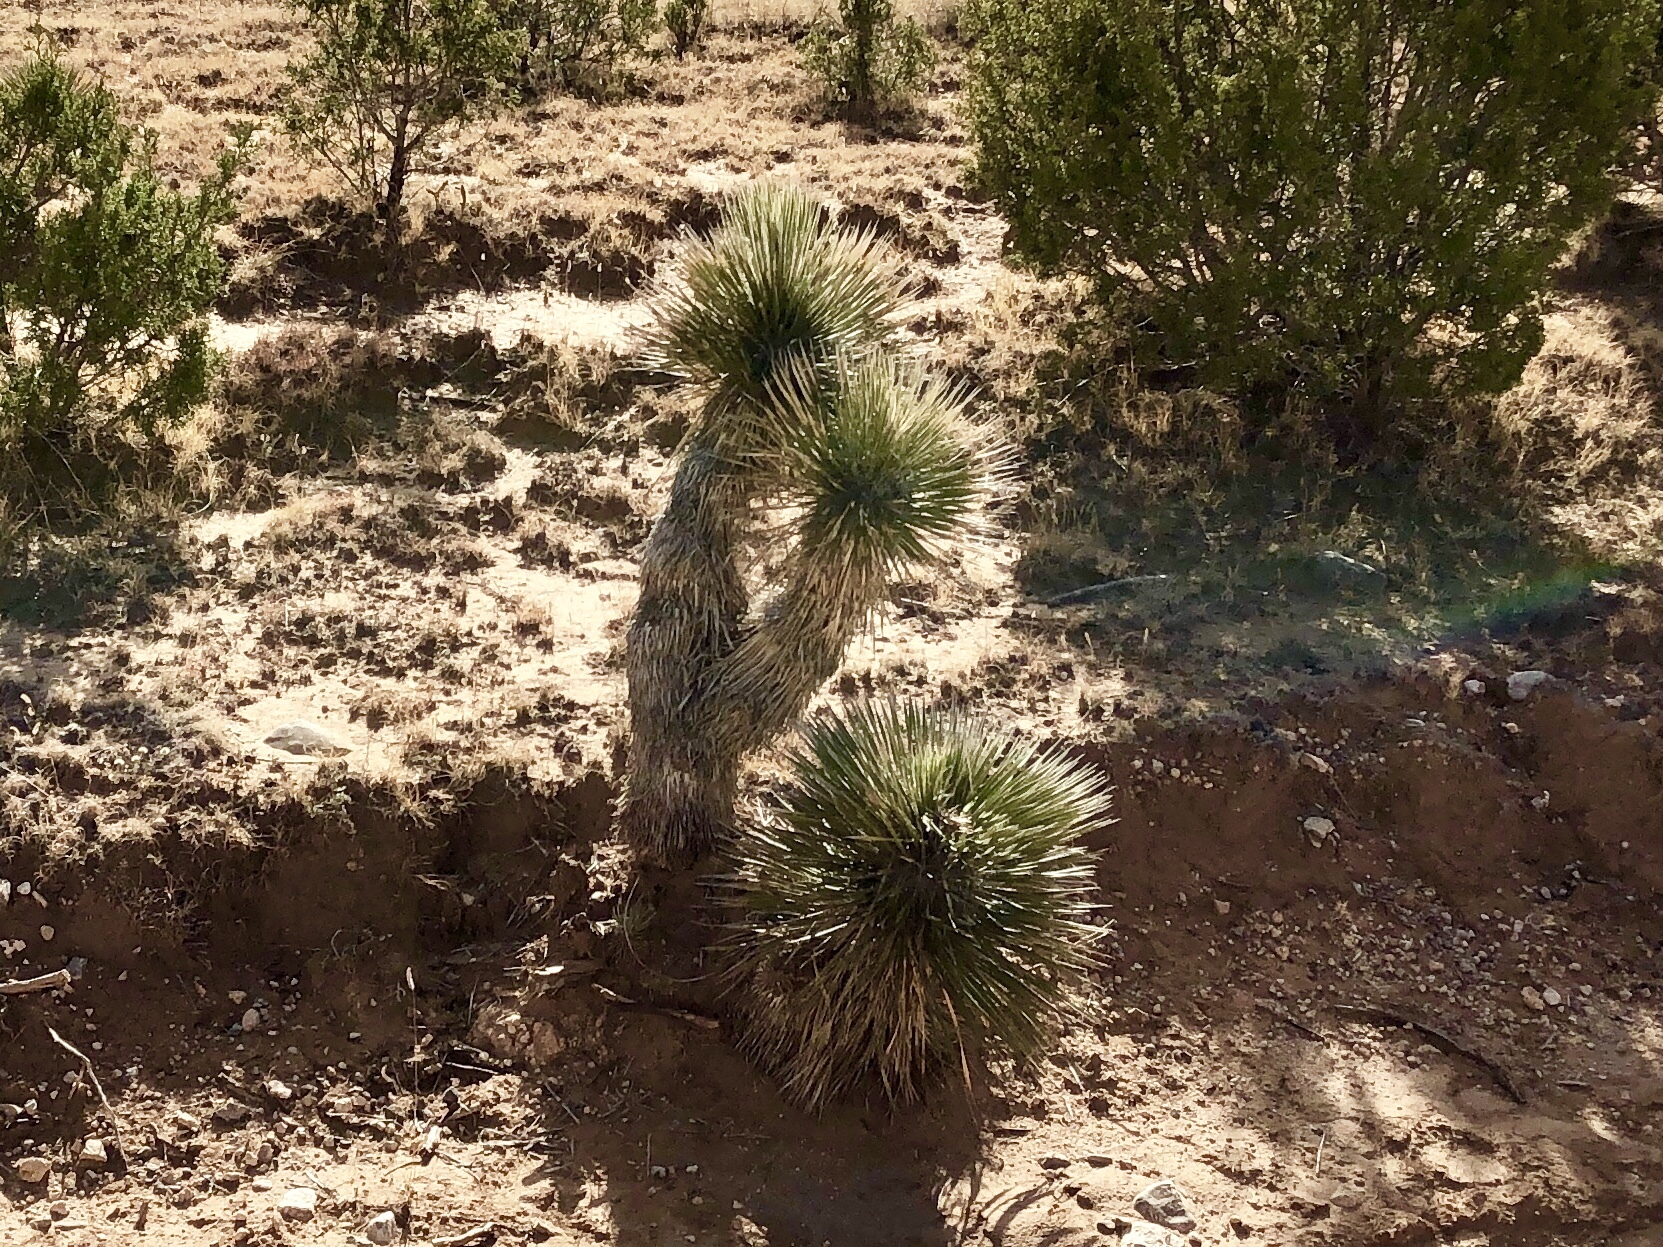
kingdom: Plantae
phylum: Tracheophyta
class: Liliopsida
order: Asparagales
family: Asparagaceae
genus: Yucca
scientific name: Yucca elata
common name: Palmella
